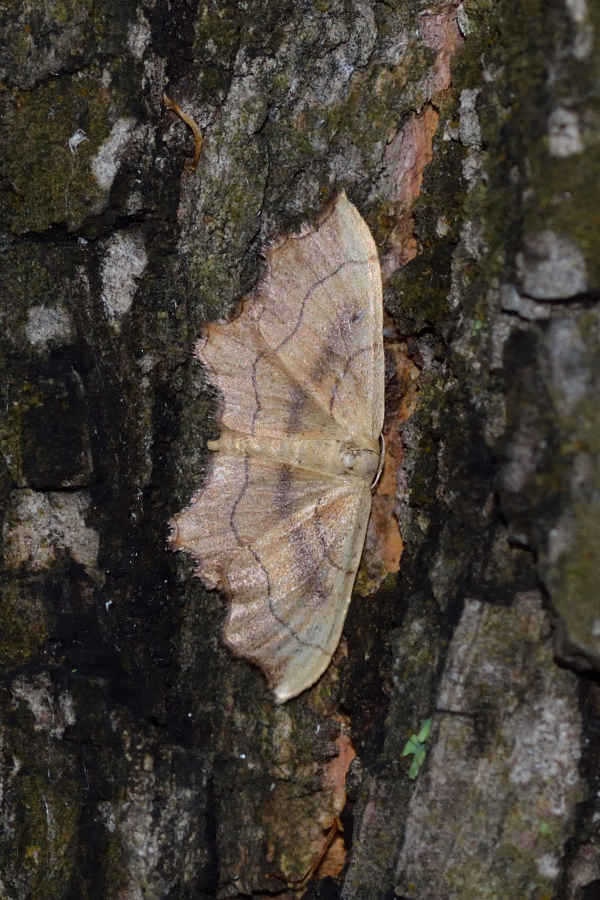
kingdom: Animalia
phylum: Arthropoda
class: Insecta
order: Lepidoptera
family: Geometridae
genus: Idaea
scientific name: Idaea emarginata
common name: Small scallop
